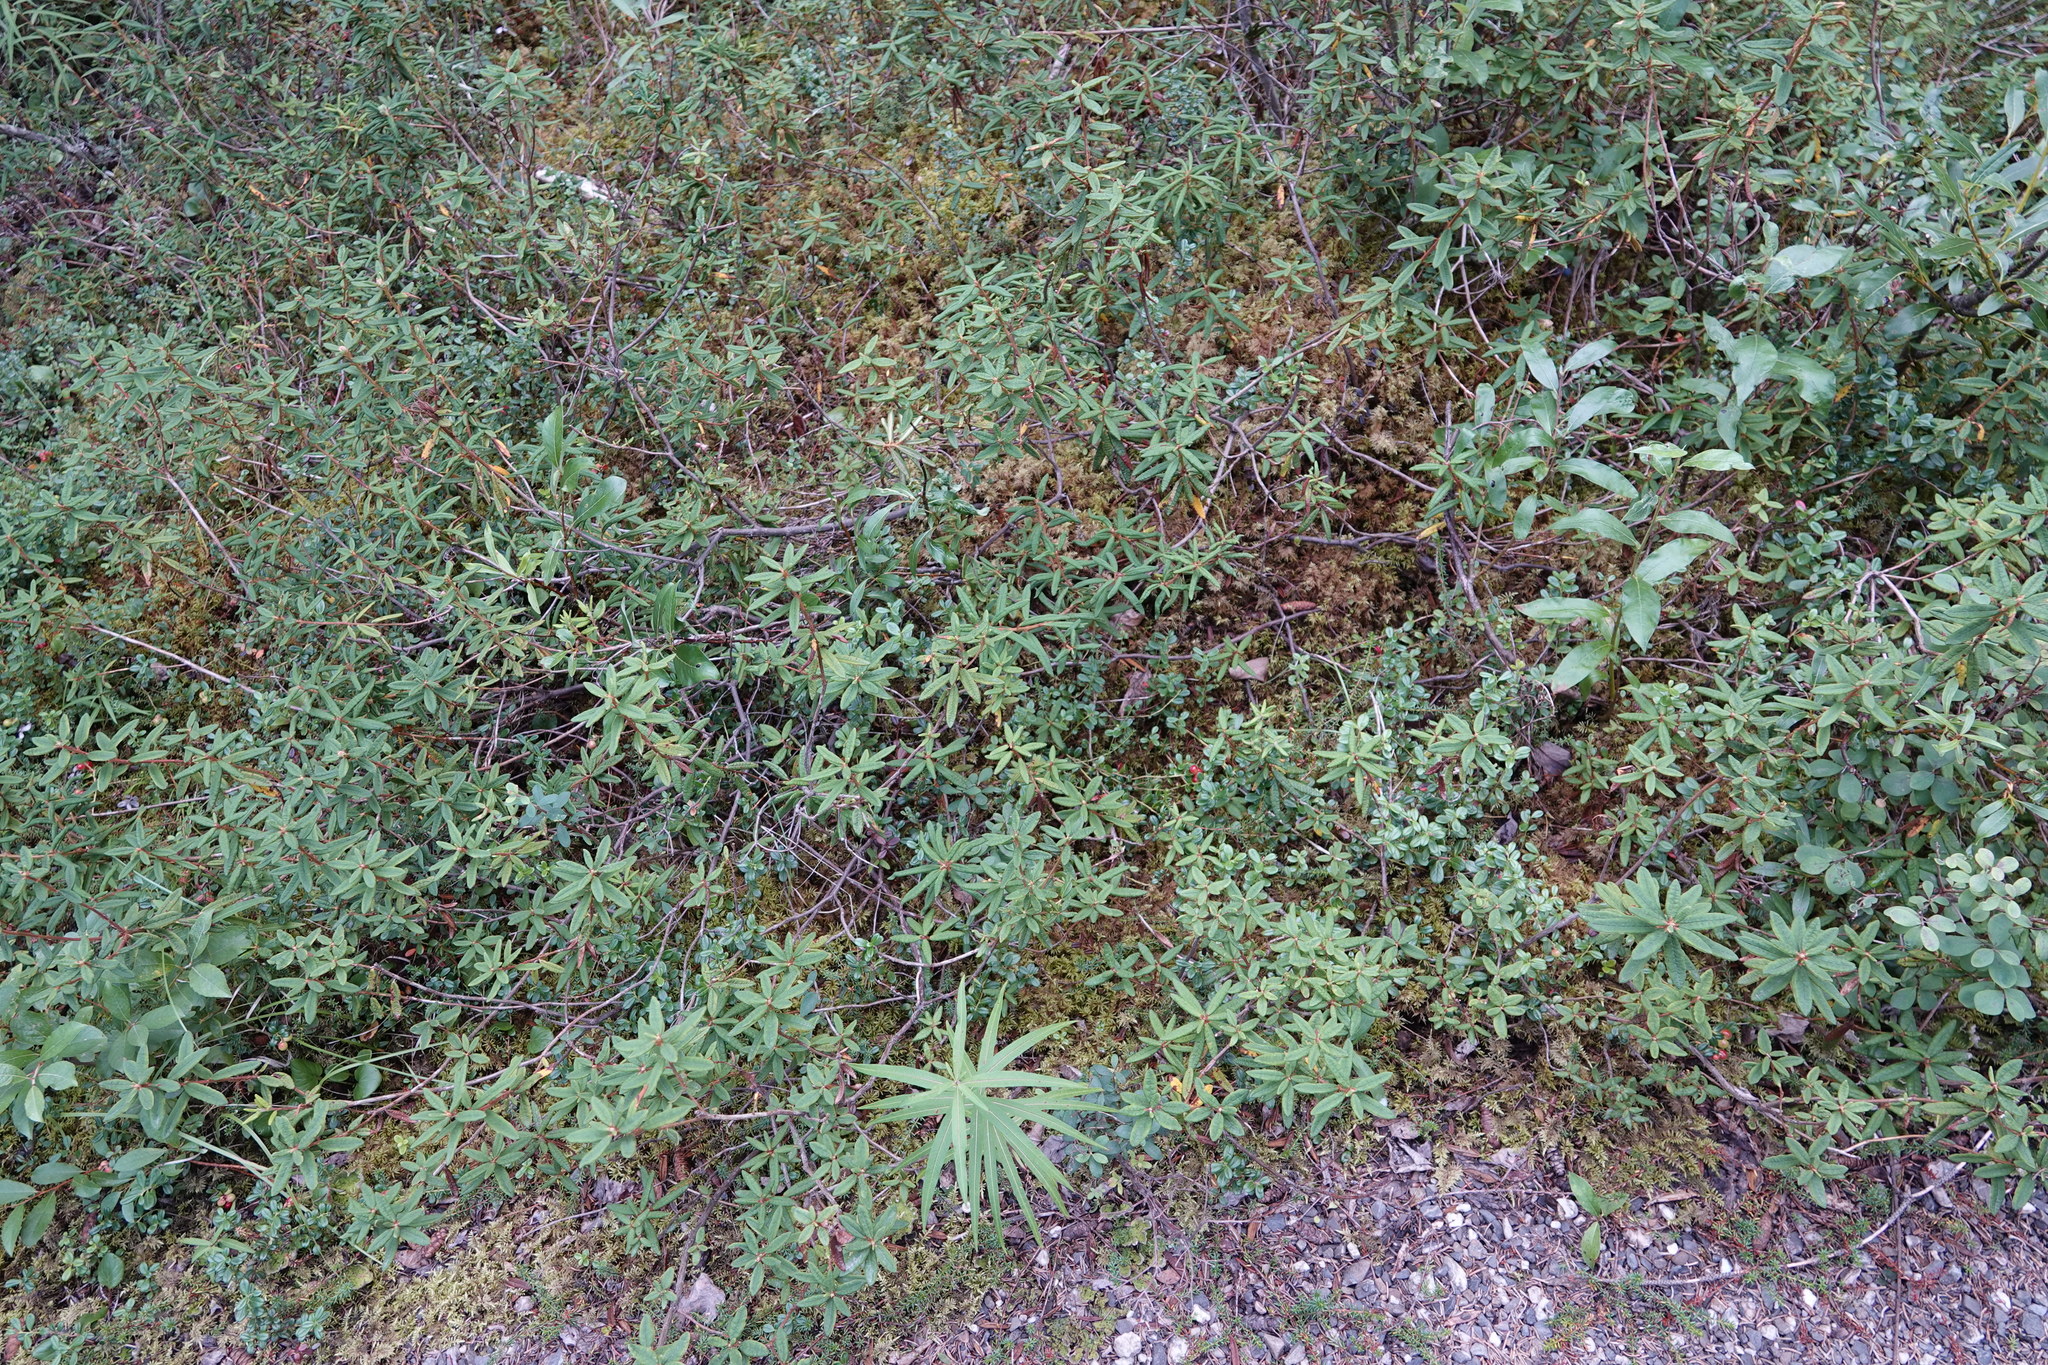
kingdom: Plantae
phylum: Tracheophyta
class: Magnoliopsida
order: Ericales
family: Ericaceae
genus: Rhododendron
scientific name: Rhododendron groenlandicum
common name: Bog labrador tea
